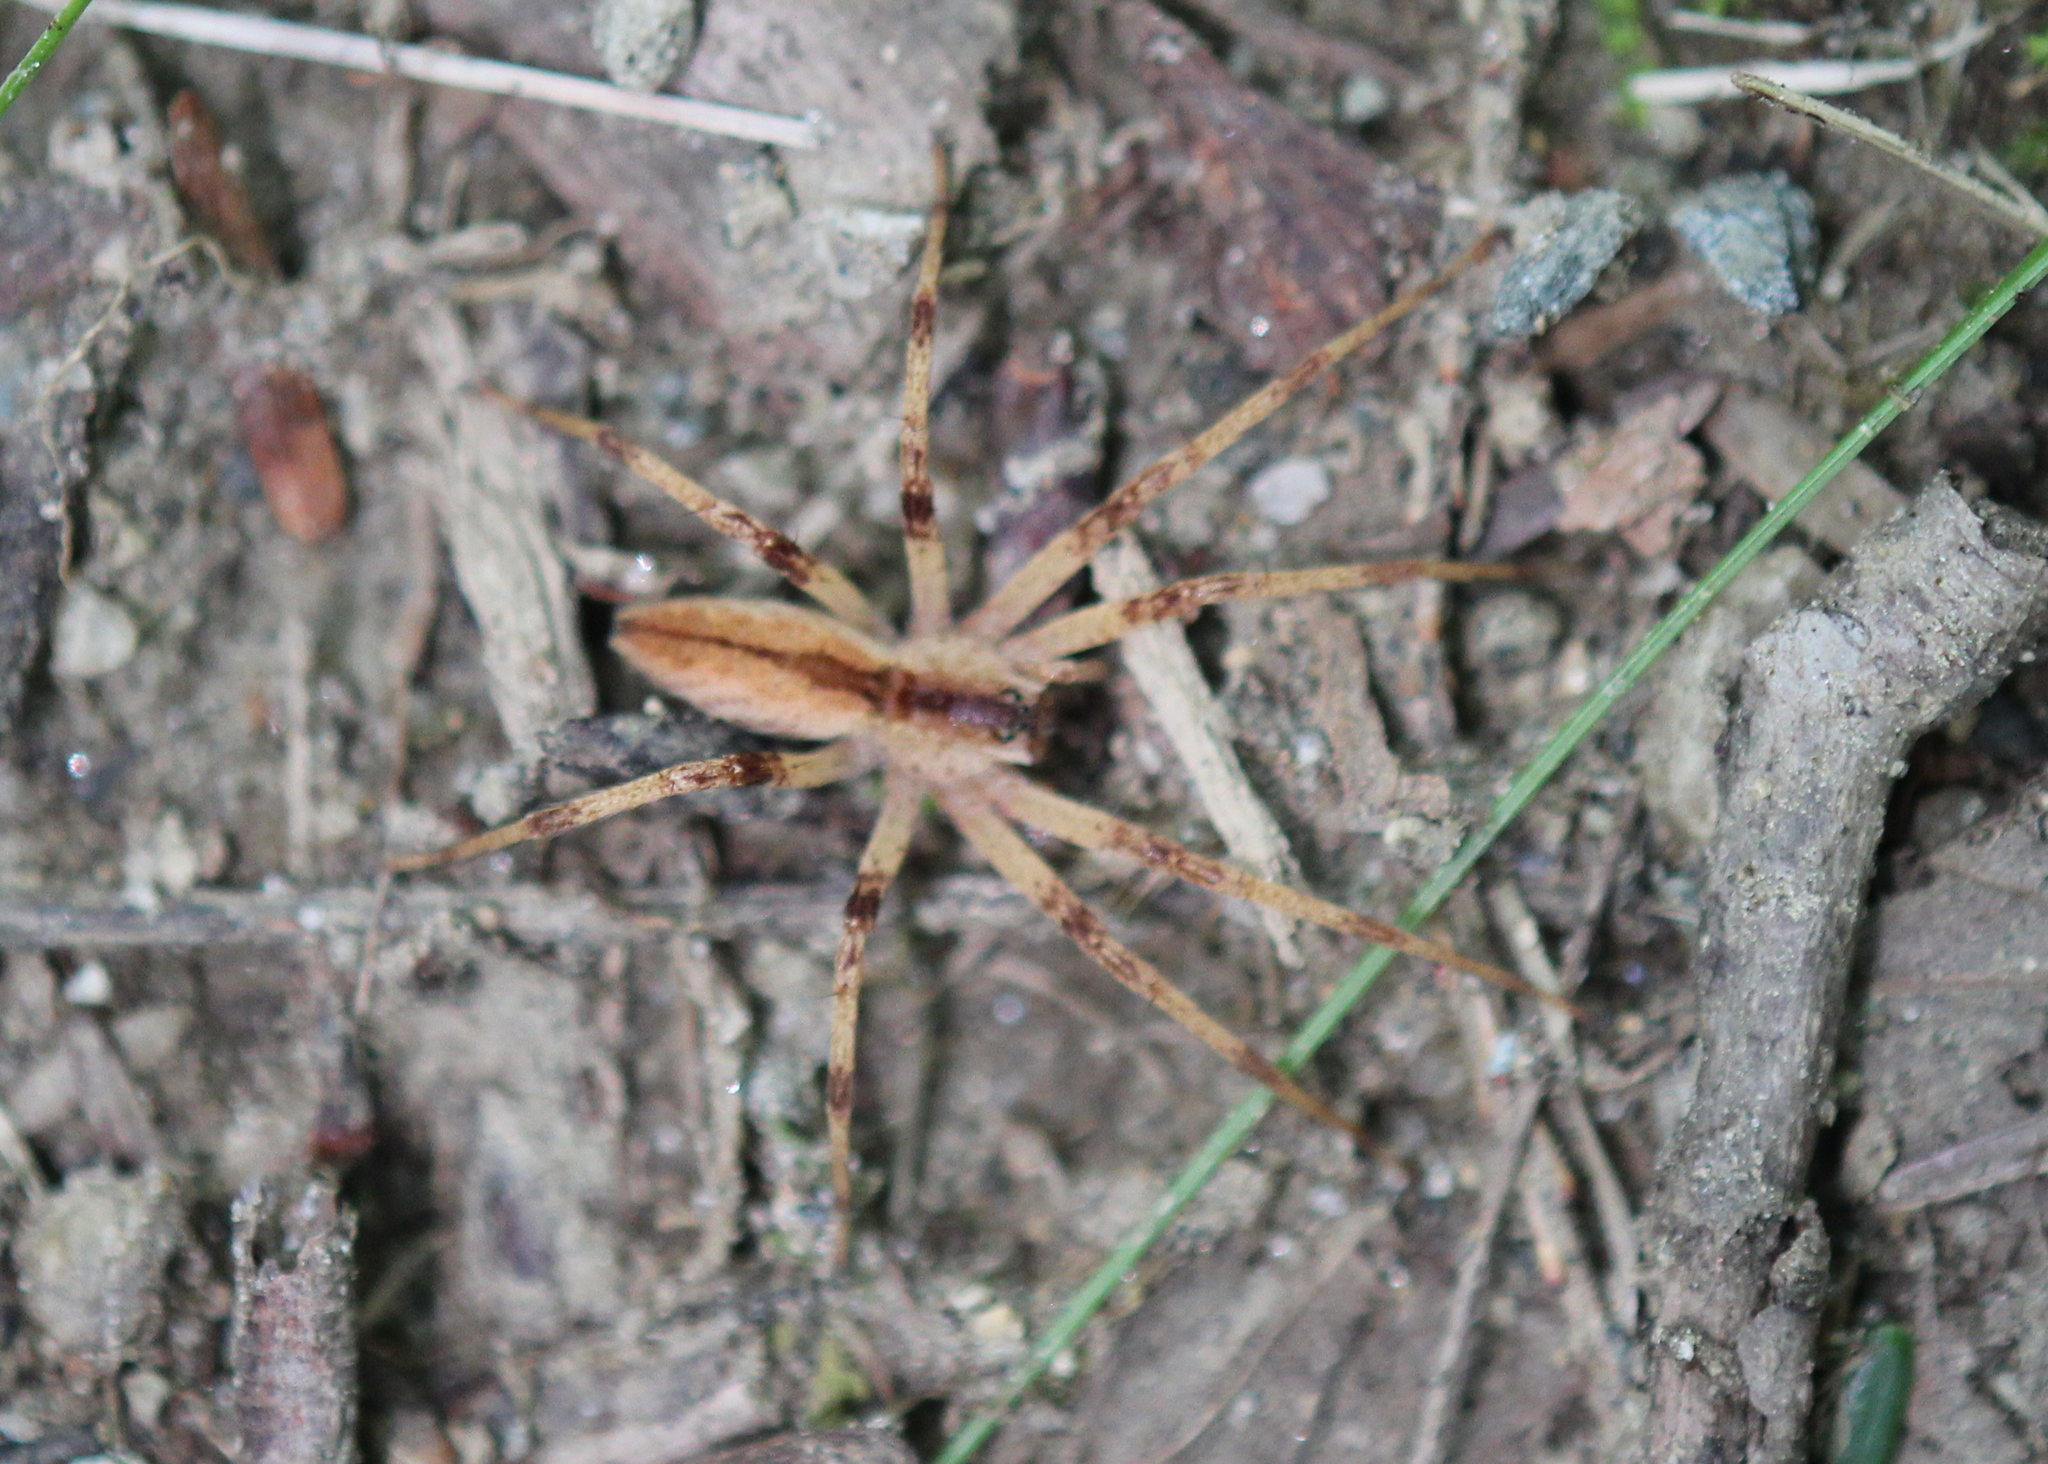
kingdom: Animalia
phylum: Arthropoda
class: Arachnida
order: Araneae
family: Pisauridae
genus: Pisaurina
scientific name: Pisaurina mira
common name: American nursery web spider
